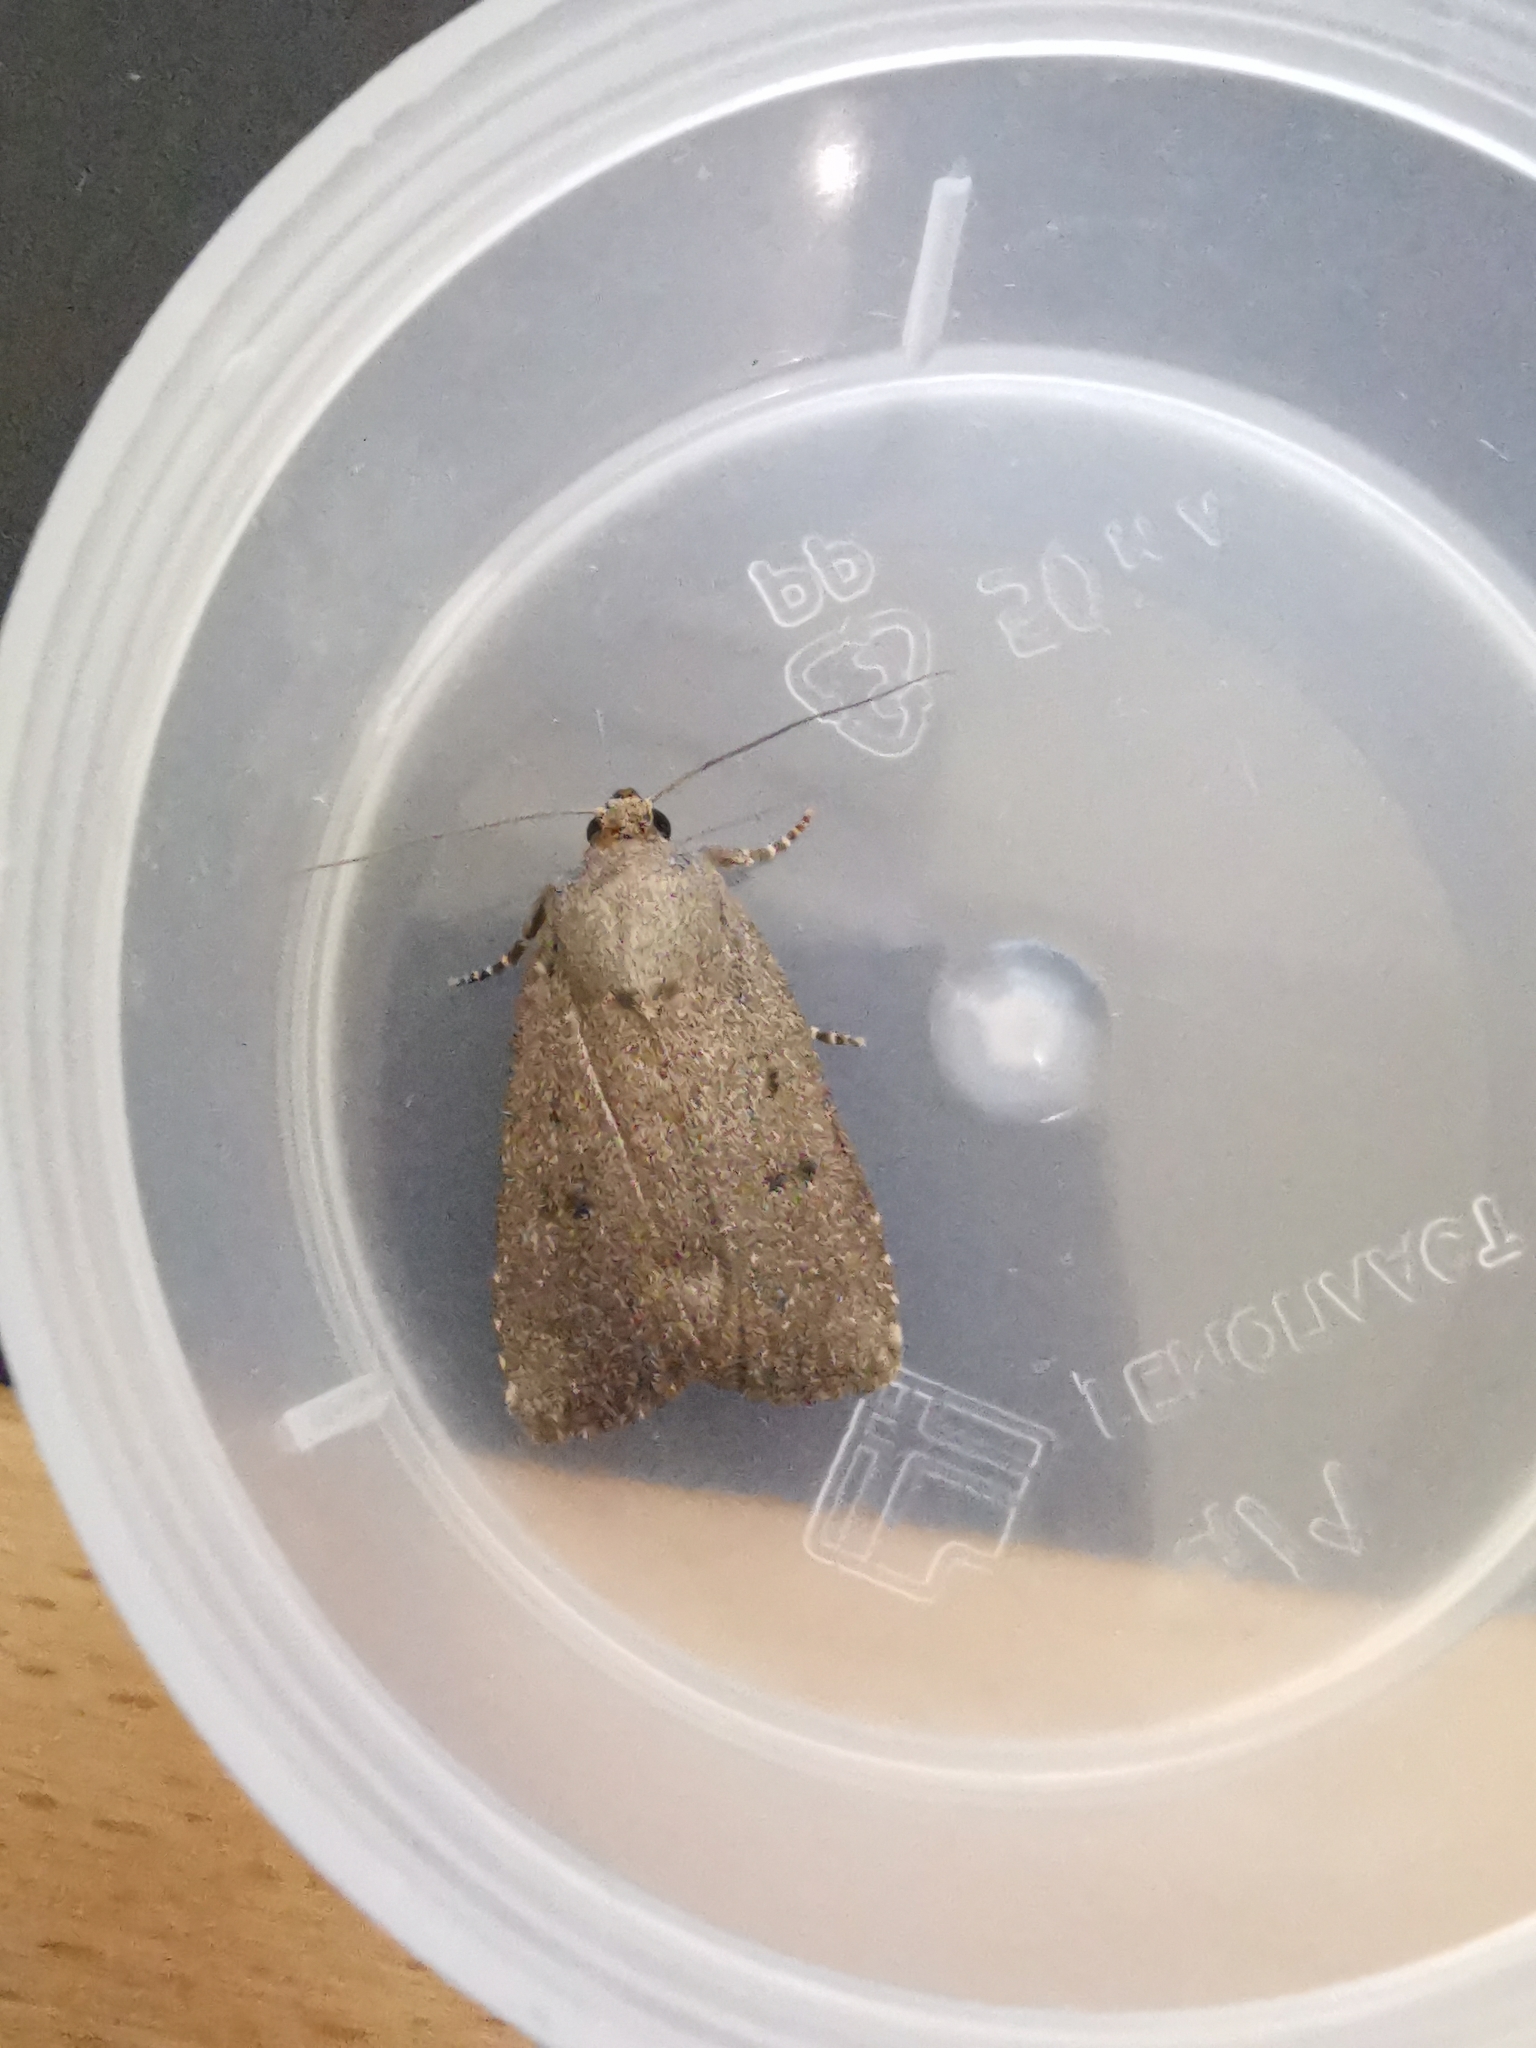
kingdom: Animalia
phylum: Arthropoda
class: Insecta
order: Lepidoptera
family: Noctuidae
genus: Amphipyra
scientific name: Amphipyra tragopoginis
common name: Mouse moth
